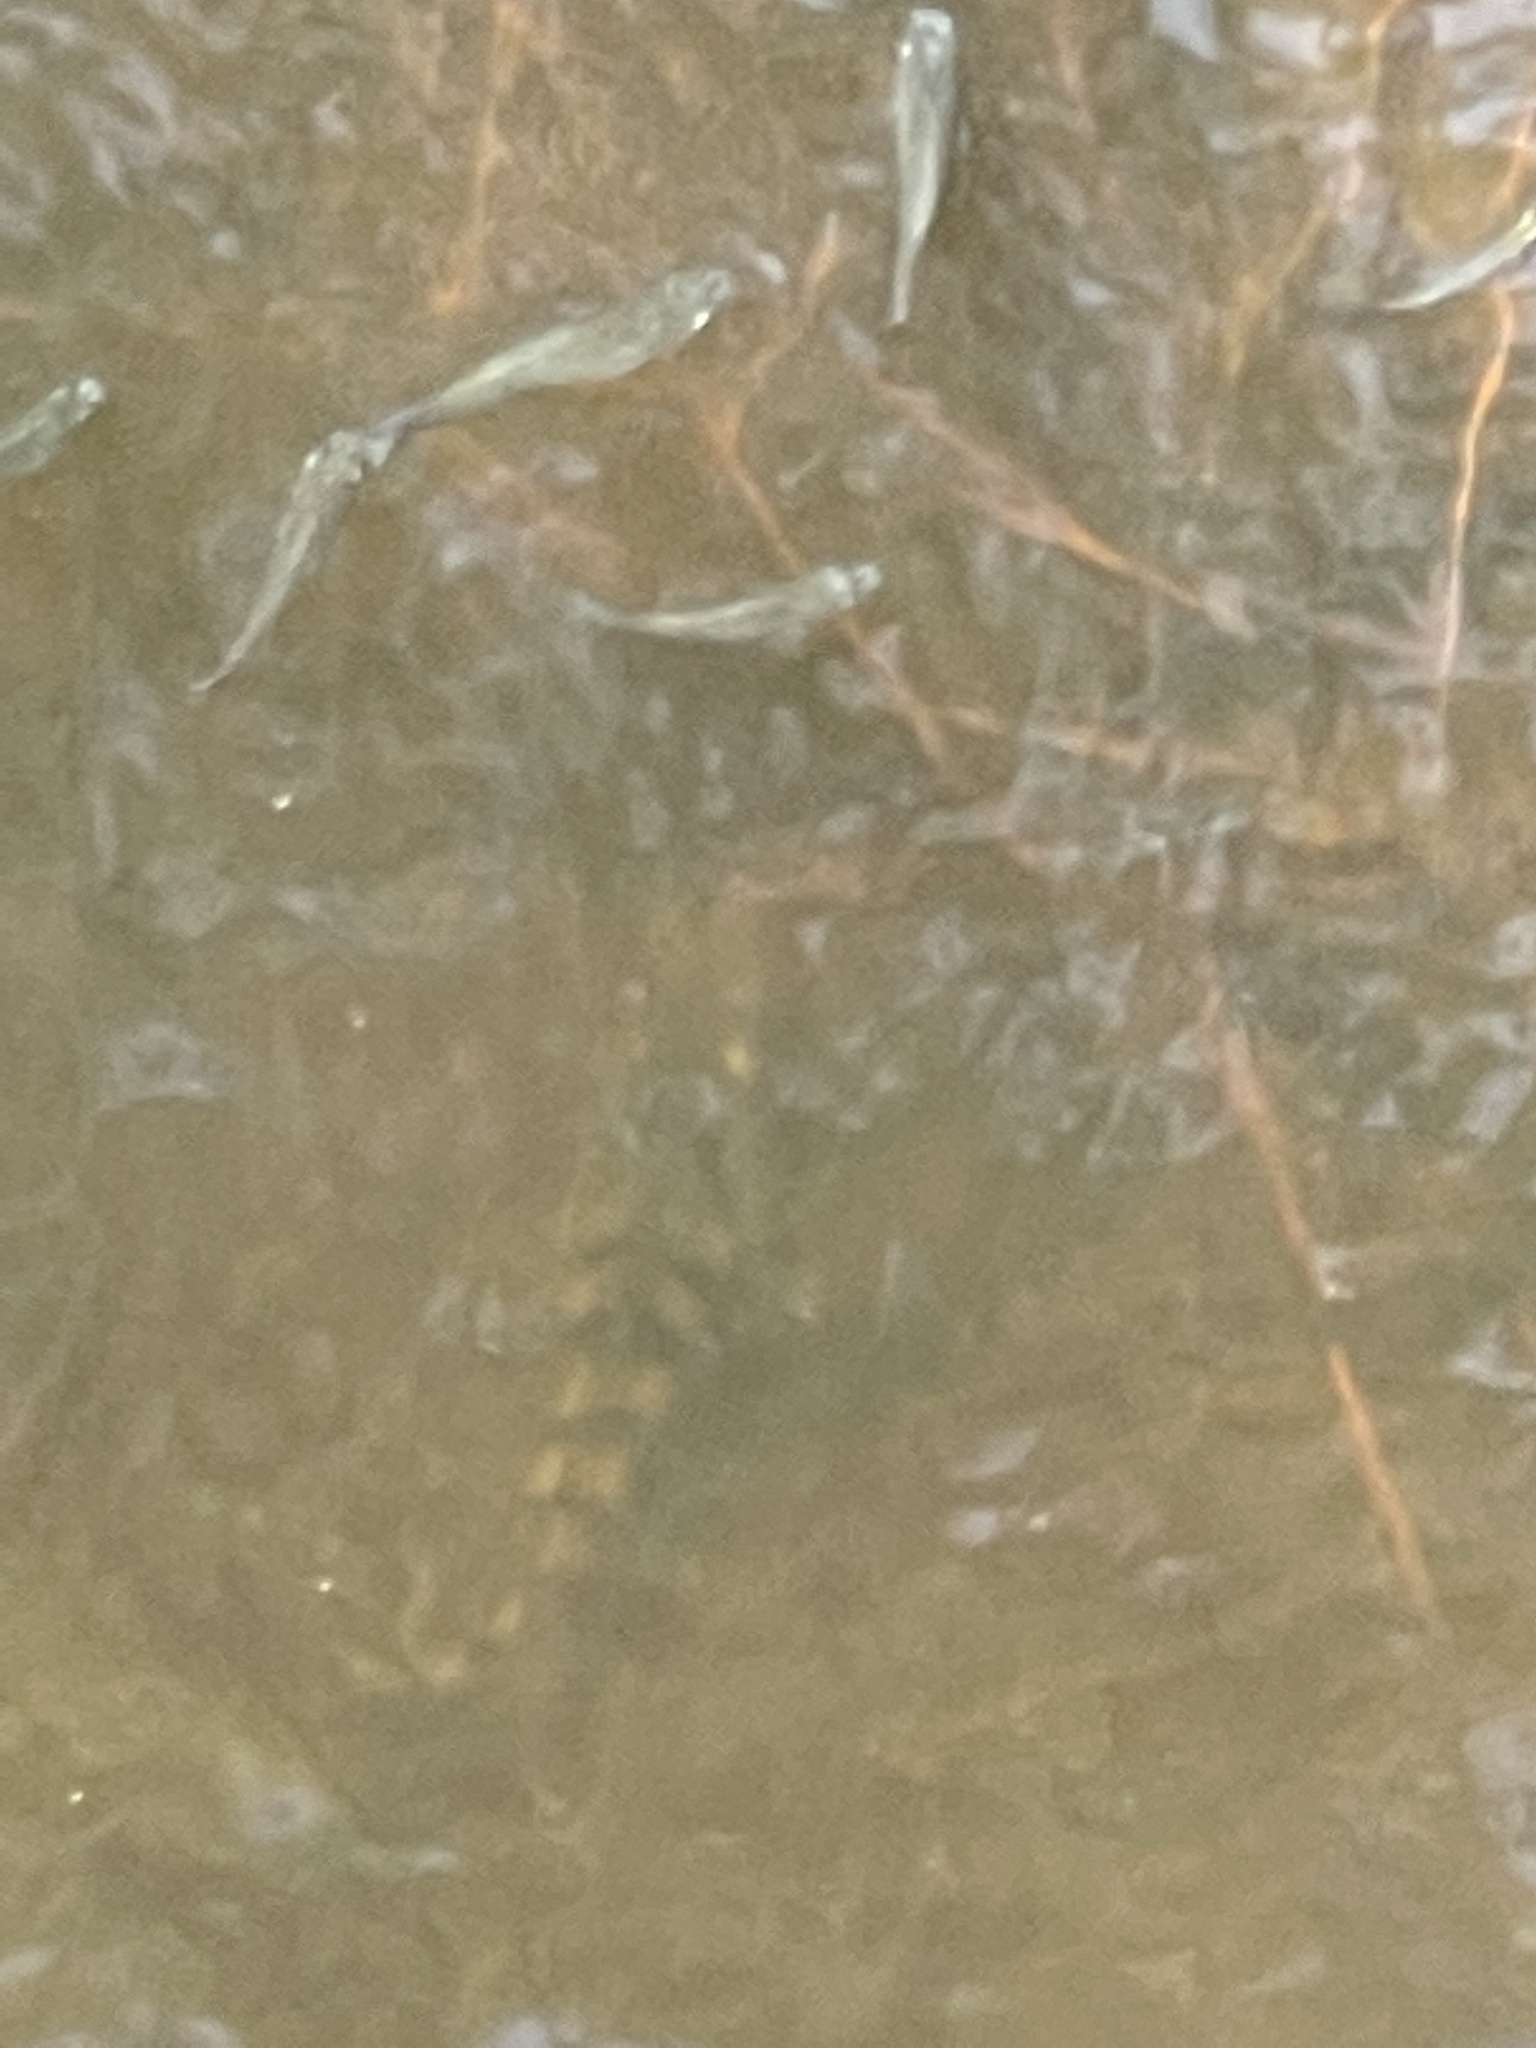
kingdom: Animalia
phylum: Chordata
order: Perciformes
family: Cichlidae
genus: Mayaheros
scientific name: Mayaheros urophthalmus
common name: Mayan cichlid
